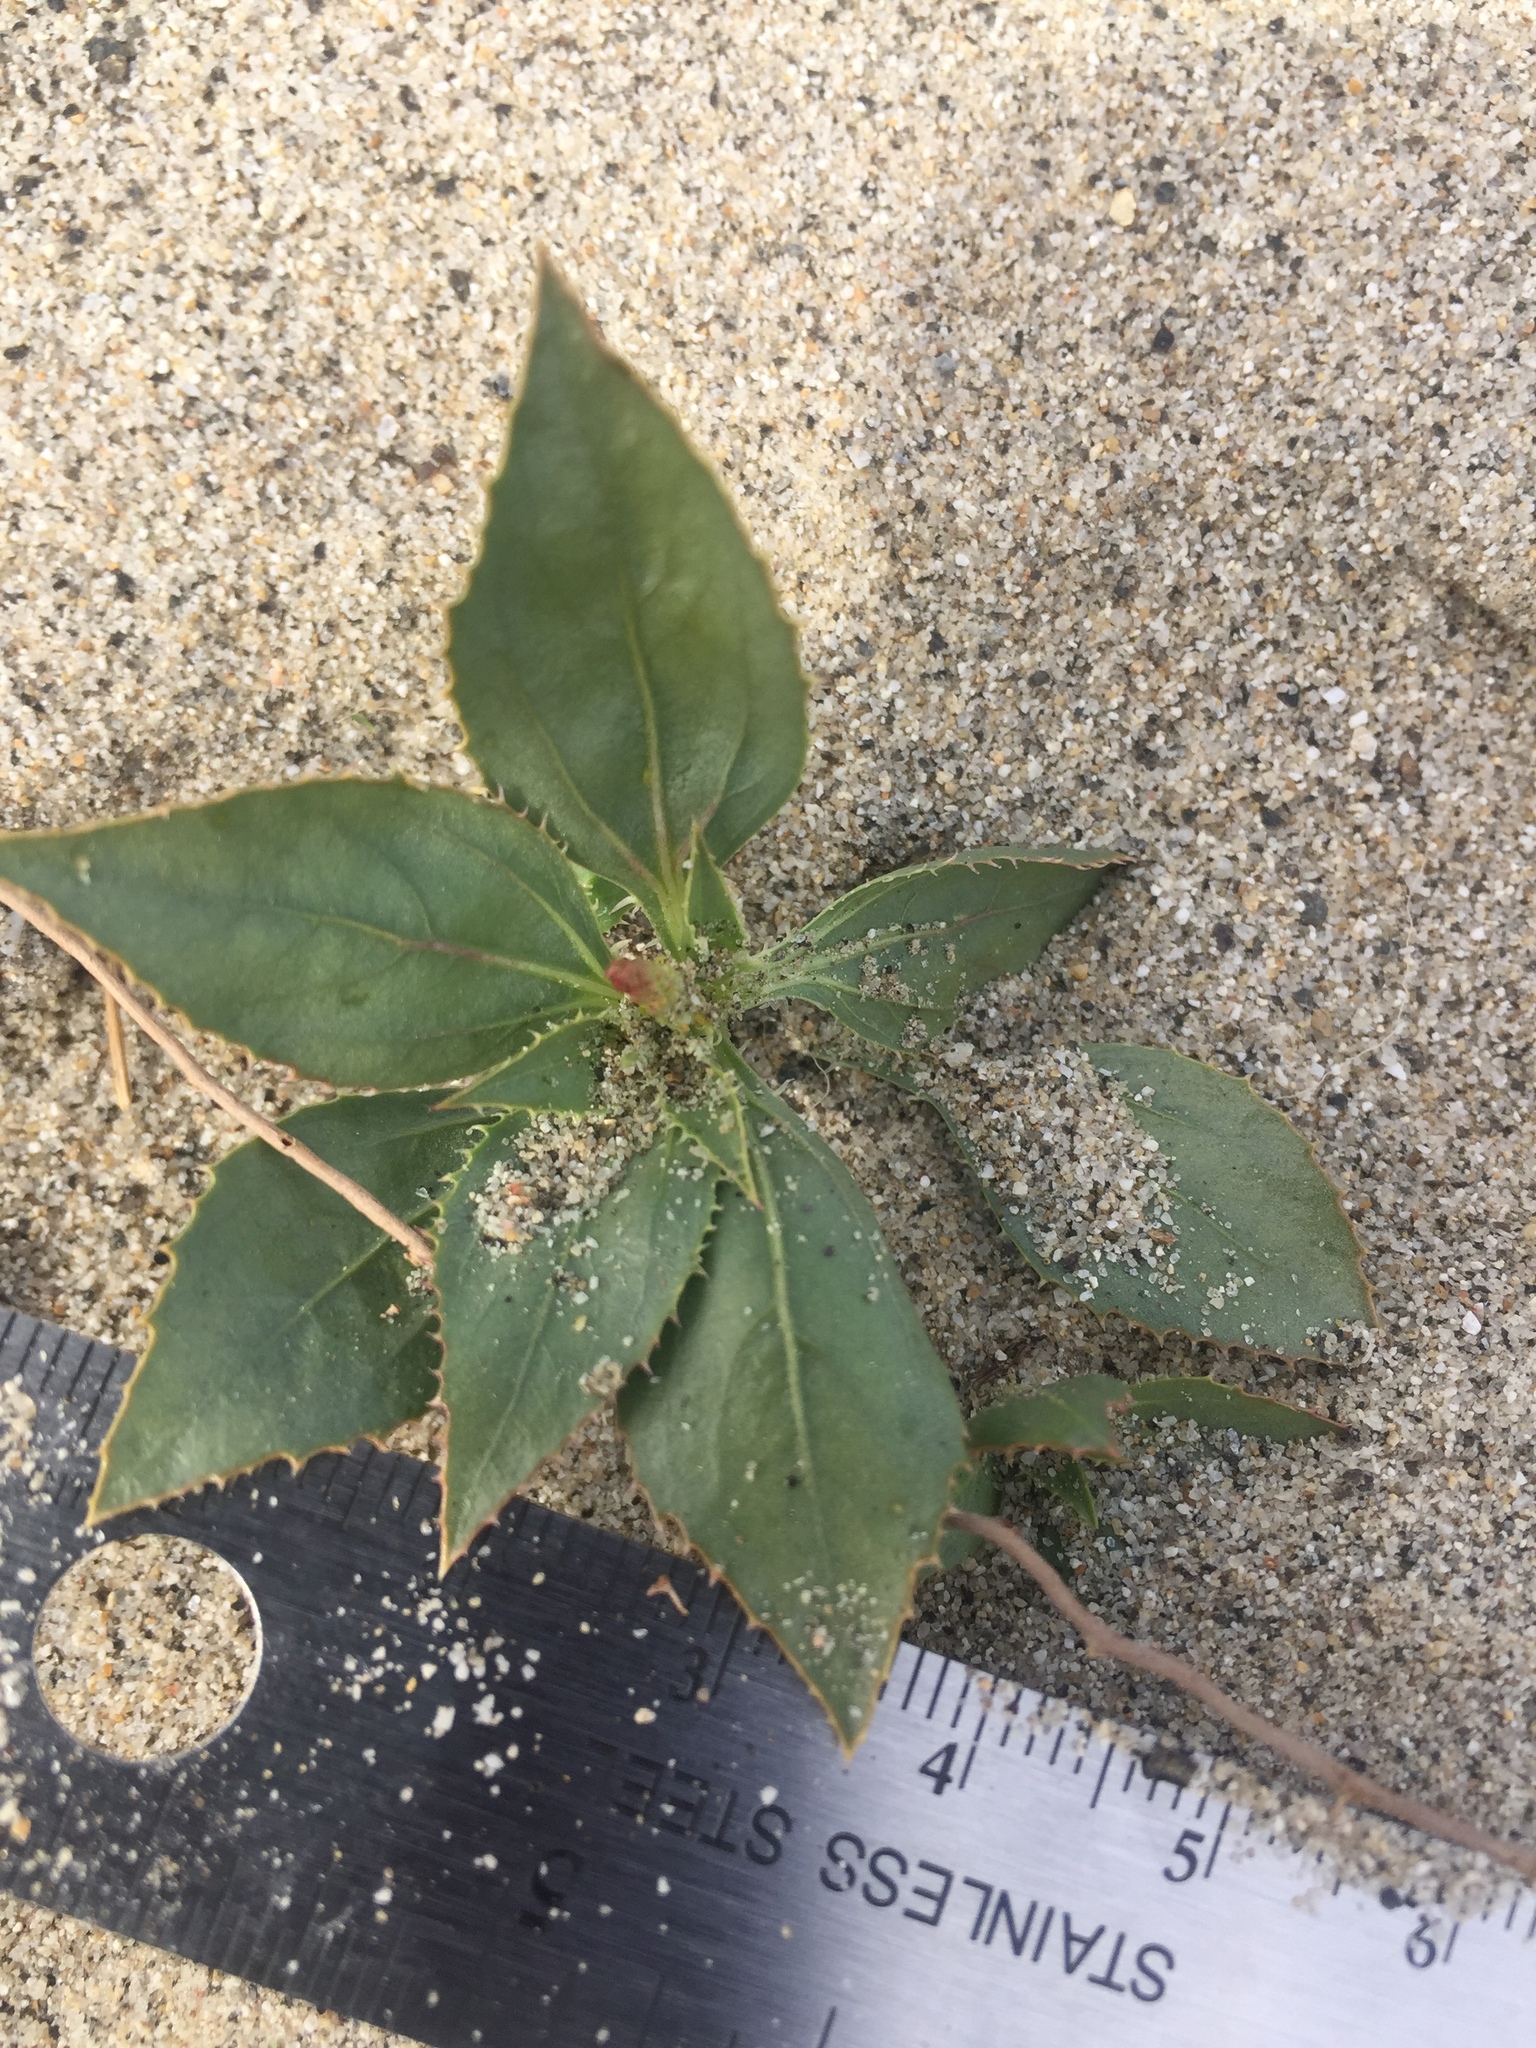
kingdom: Plantae
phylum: Tracheophyta
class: Magnoliopsida
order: Malpighiales
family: Euphorbiaceae
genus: Stillingia
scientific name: Stillingia spinulosa
